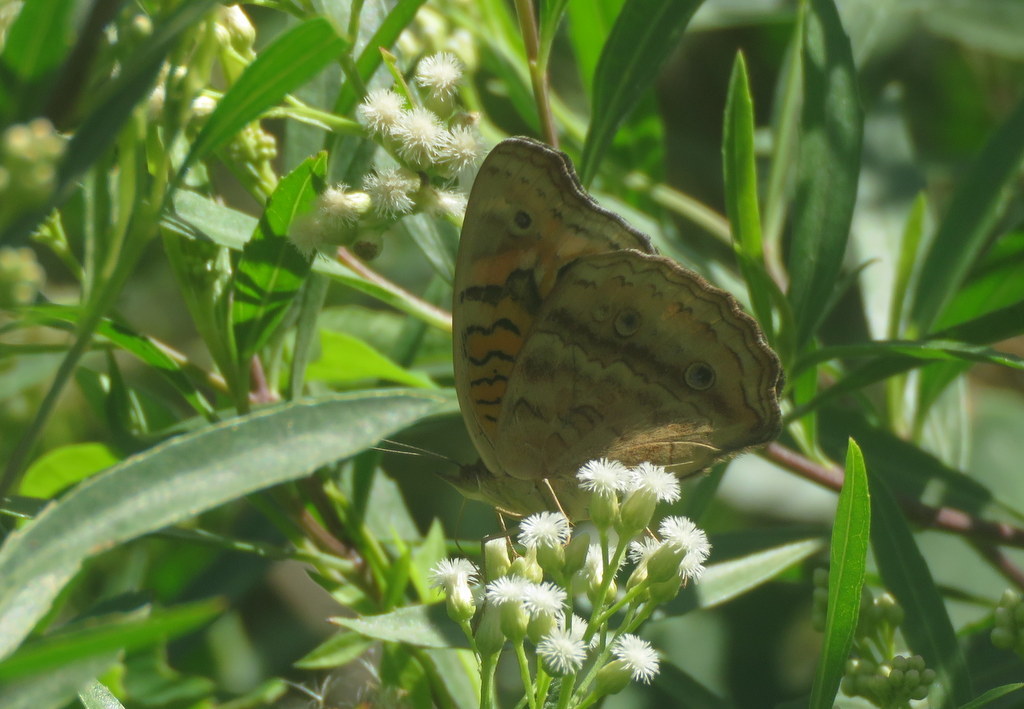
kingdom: Animalia
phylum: Arthropoda
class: Insecta
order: Lepidoptera
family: Nymphalidae
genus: Junonia
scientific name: Junonia lavinia
